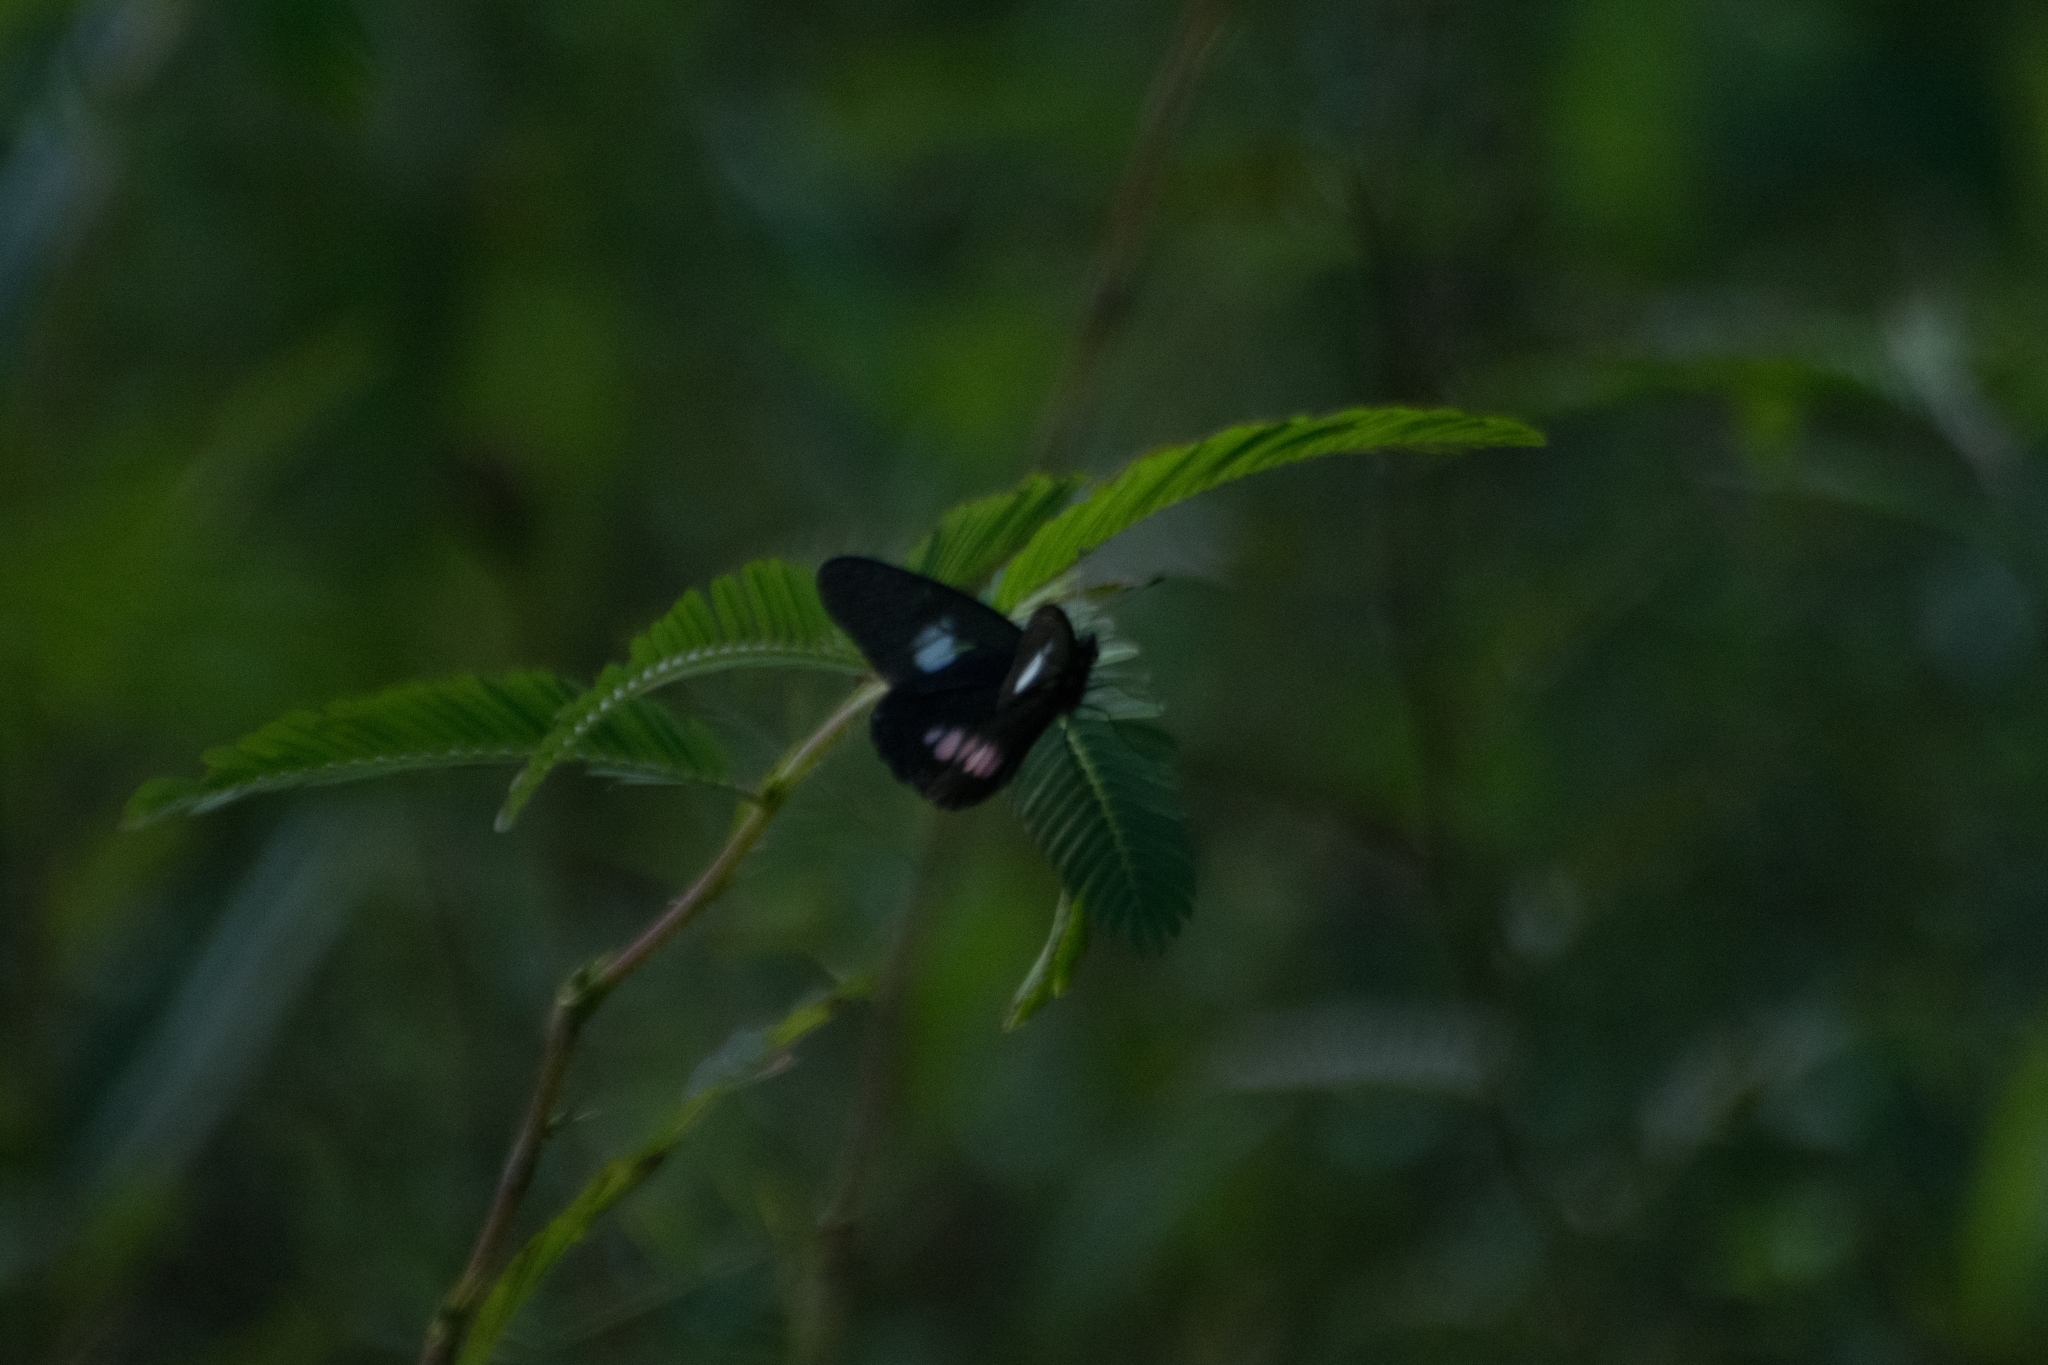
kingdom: Animalia
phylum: Arthropoda
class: Insecta
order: Lepidoptera
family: Pieridae
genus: Archonias
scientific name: Archonias brassolis
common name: Cattleheart white
